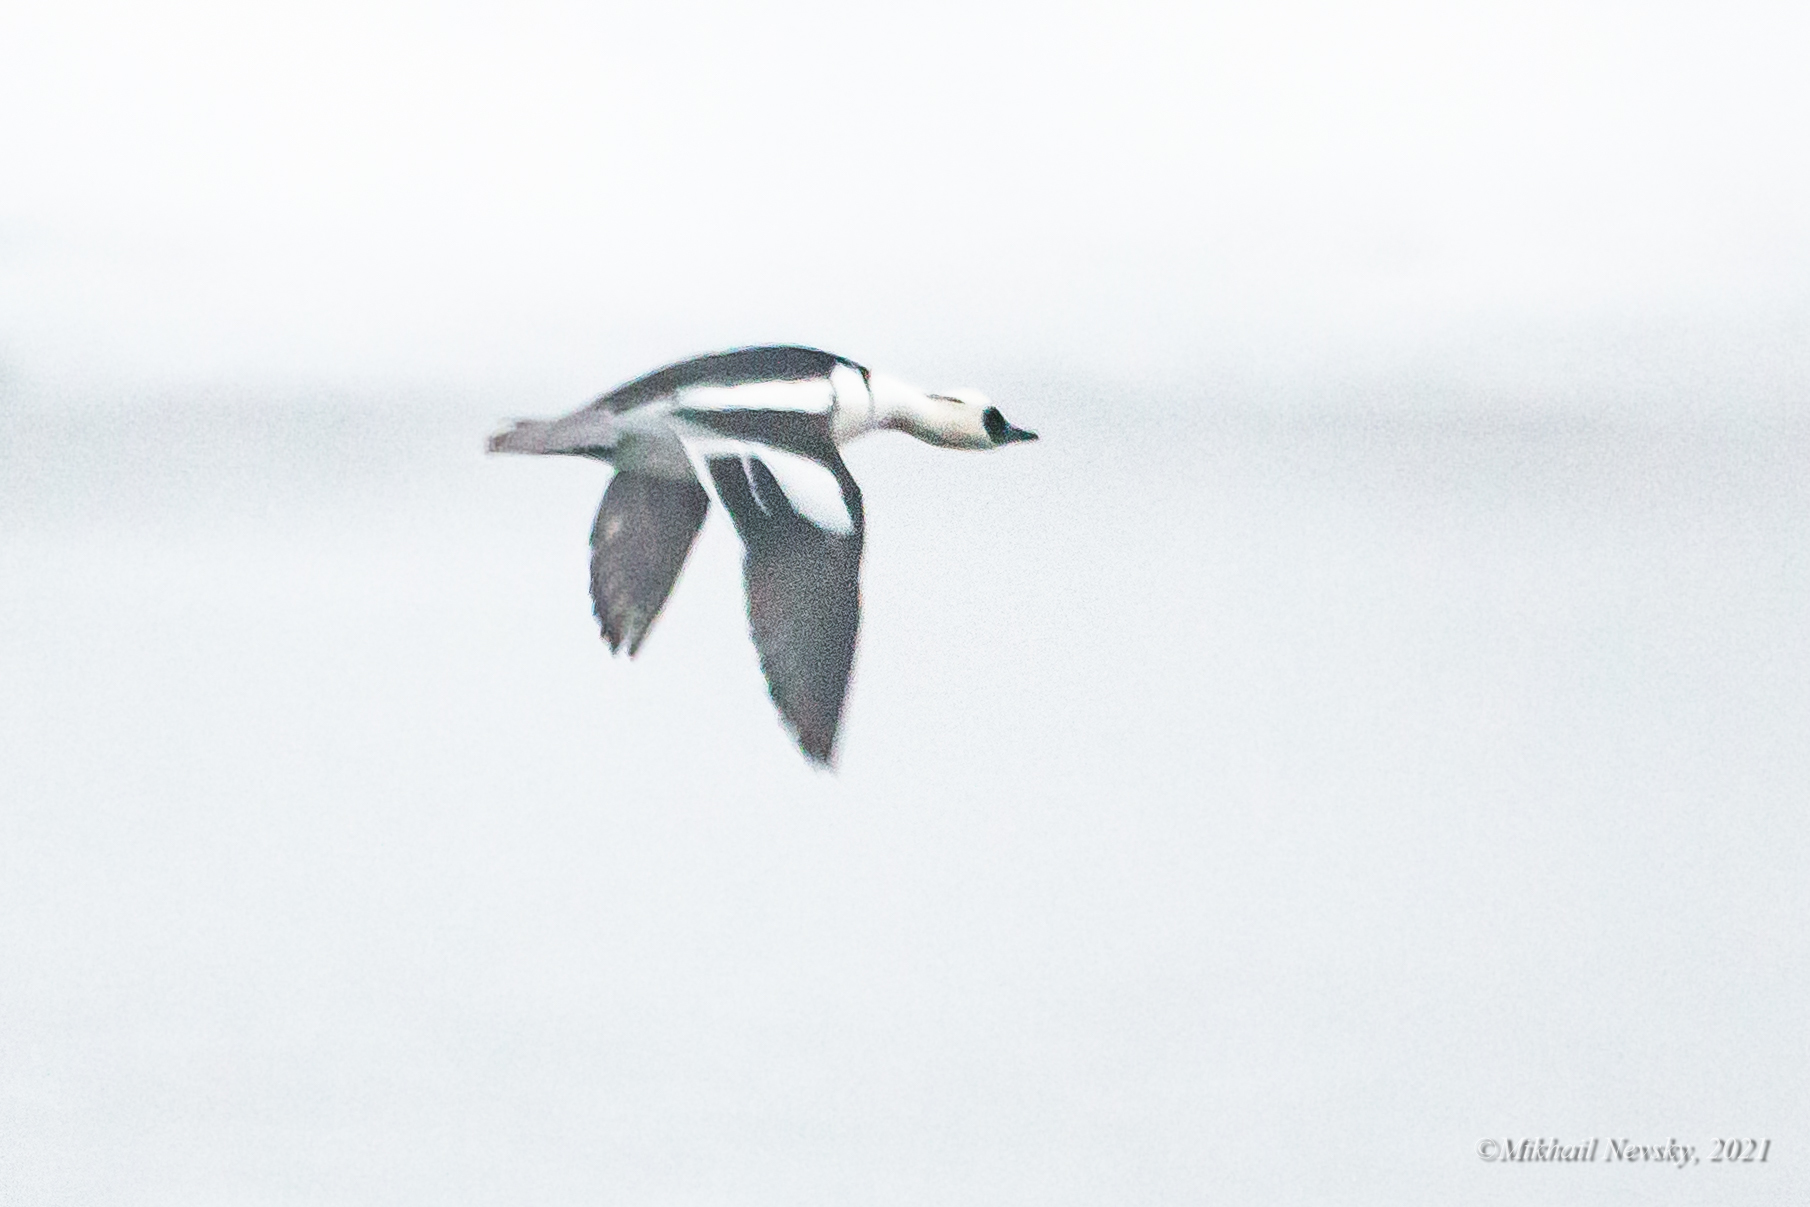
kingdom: Animalia
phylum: Chordata
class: Aves
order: Anseriformes
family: Anatidae
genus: Mergellus
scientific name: Mergellus albellus
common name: Smew
